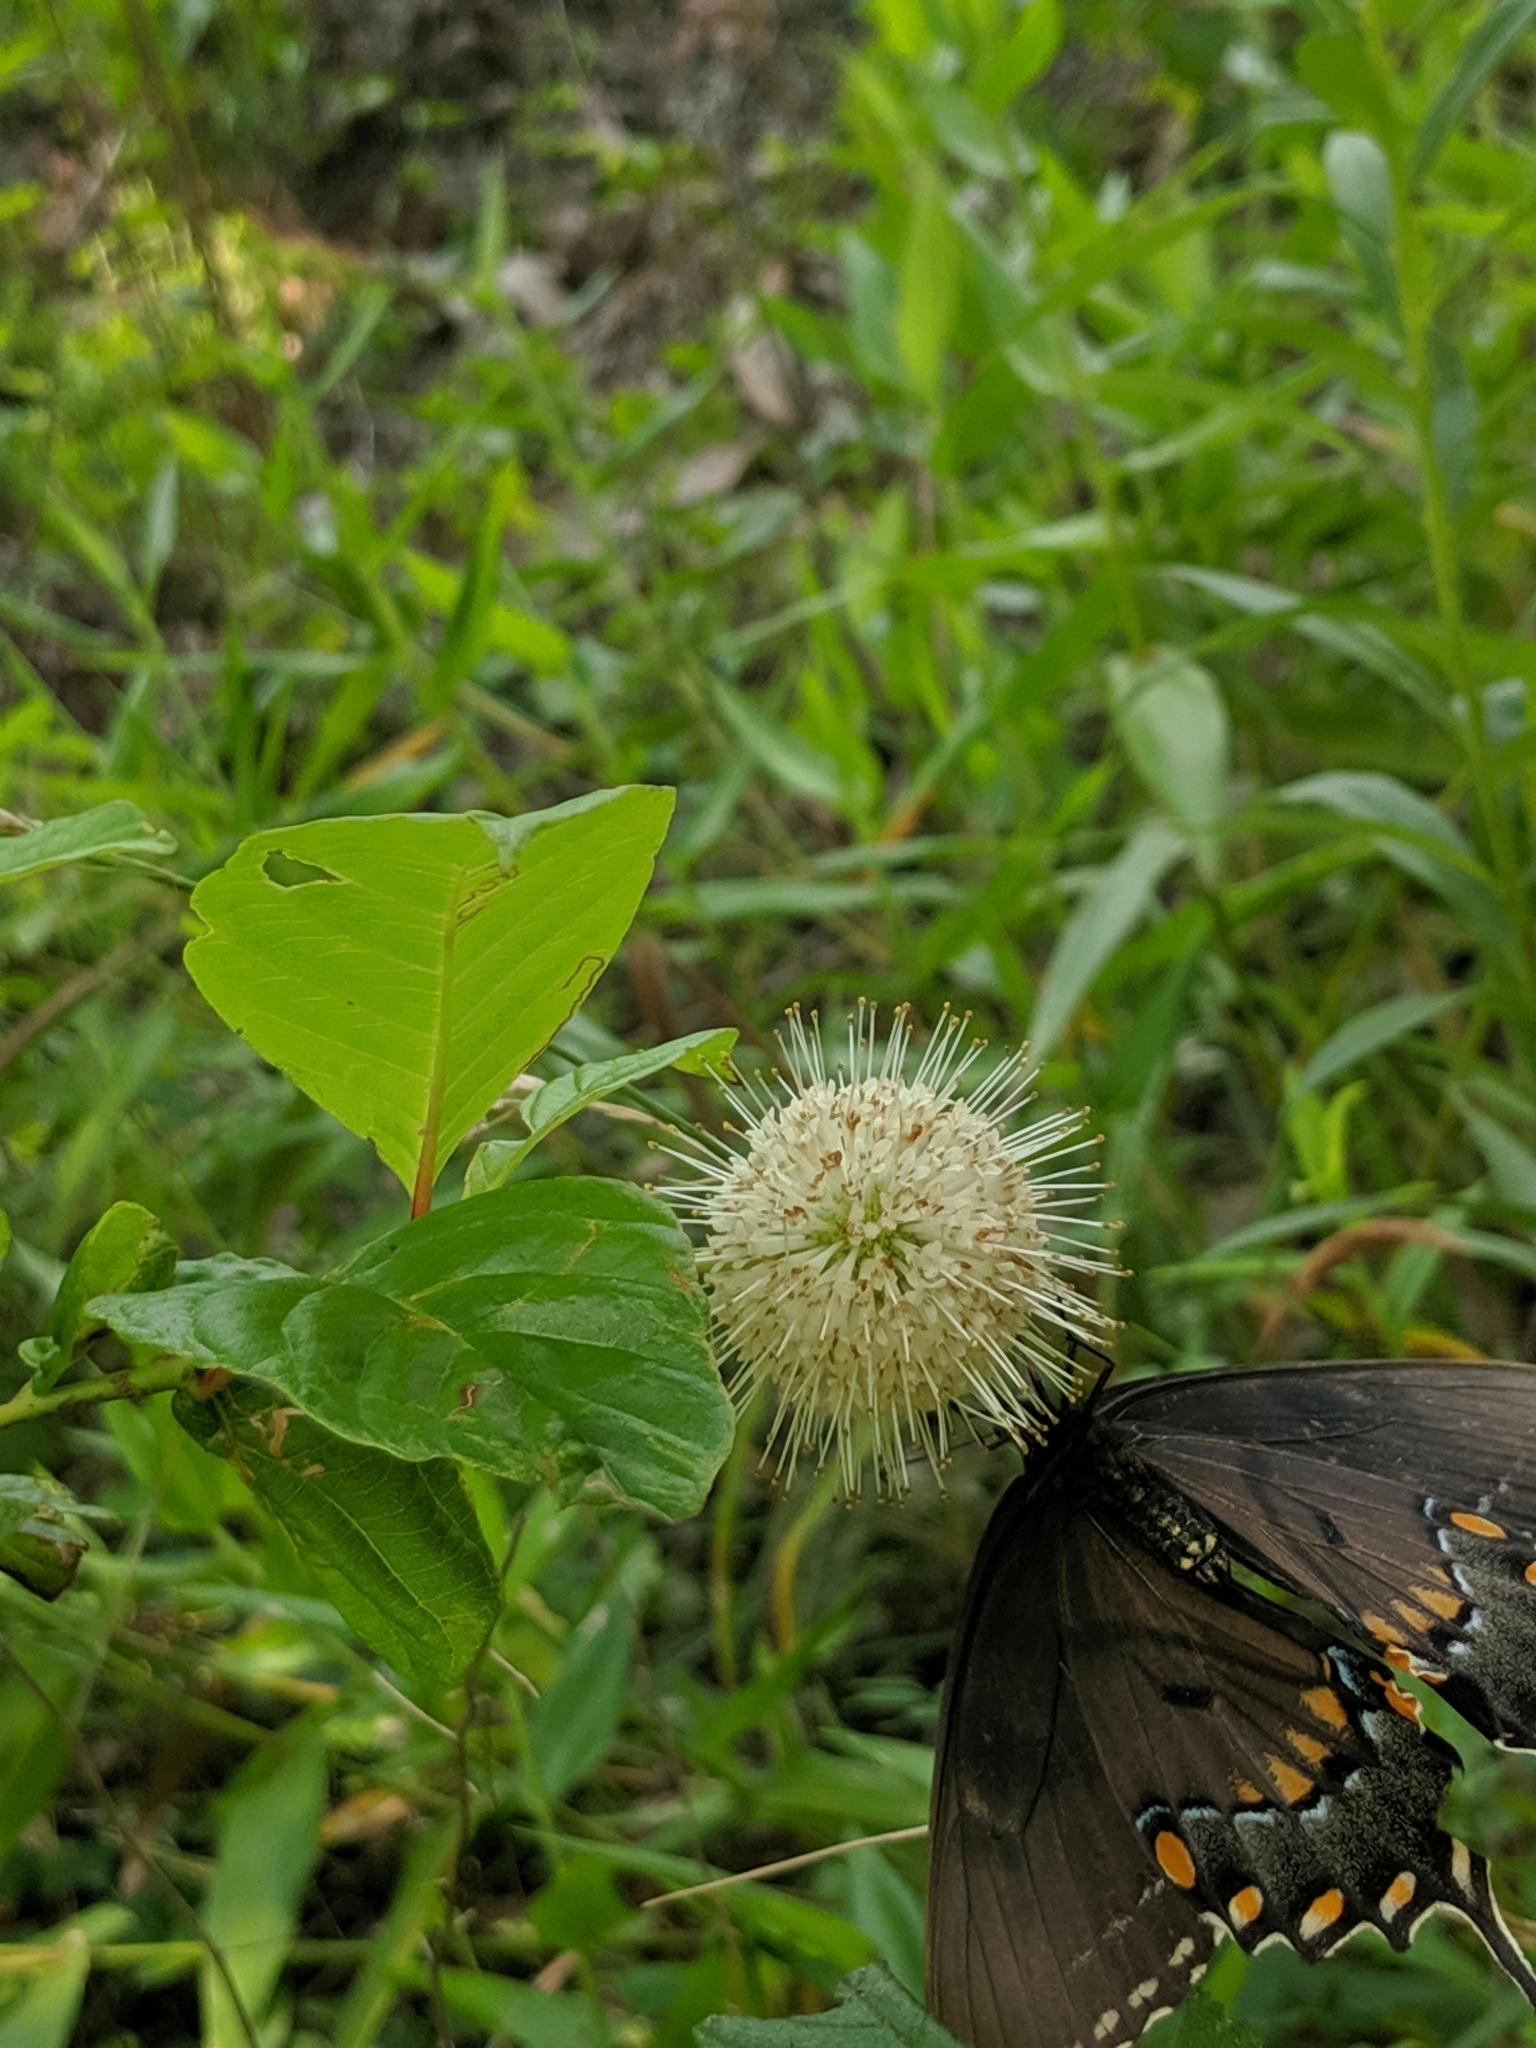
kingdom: Plantae
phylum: Tracheophyta
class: Magnoliopsida
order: Gentianales
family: Rubiaceae
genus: Cephalanthus
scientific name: Cephalanthus occidentalis
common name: Button-willow
